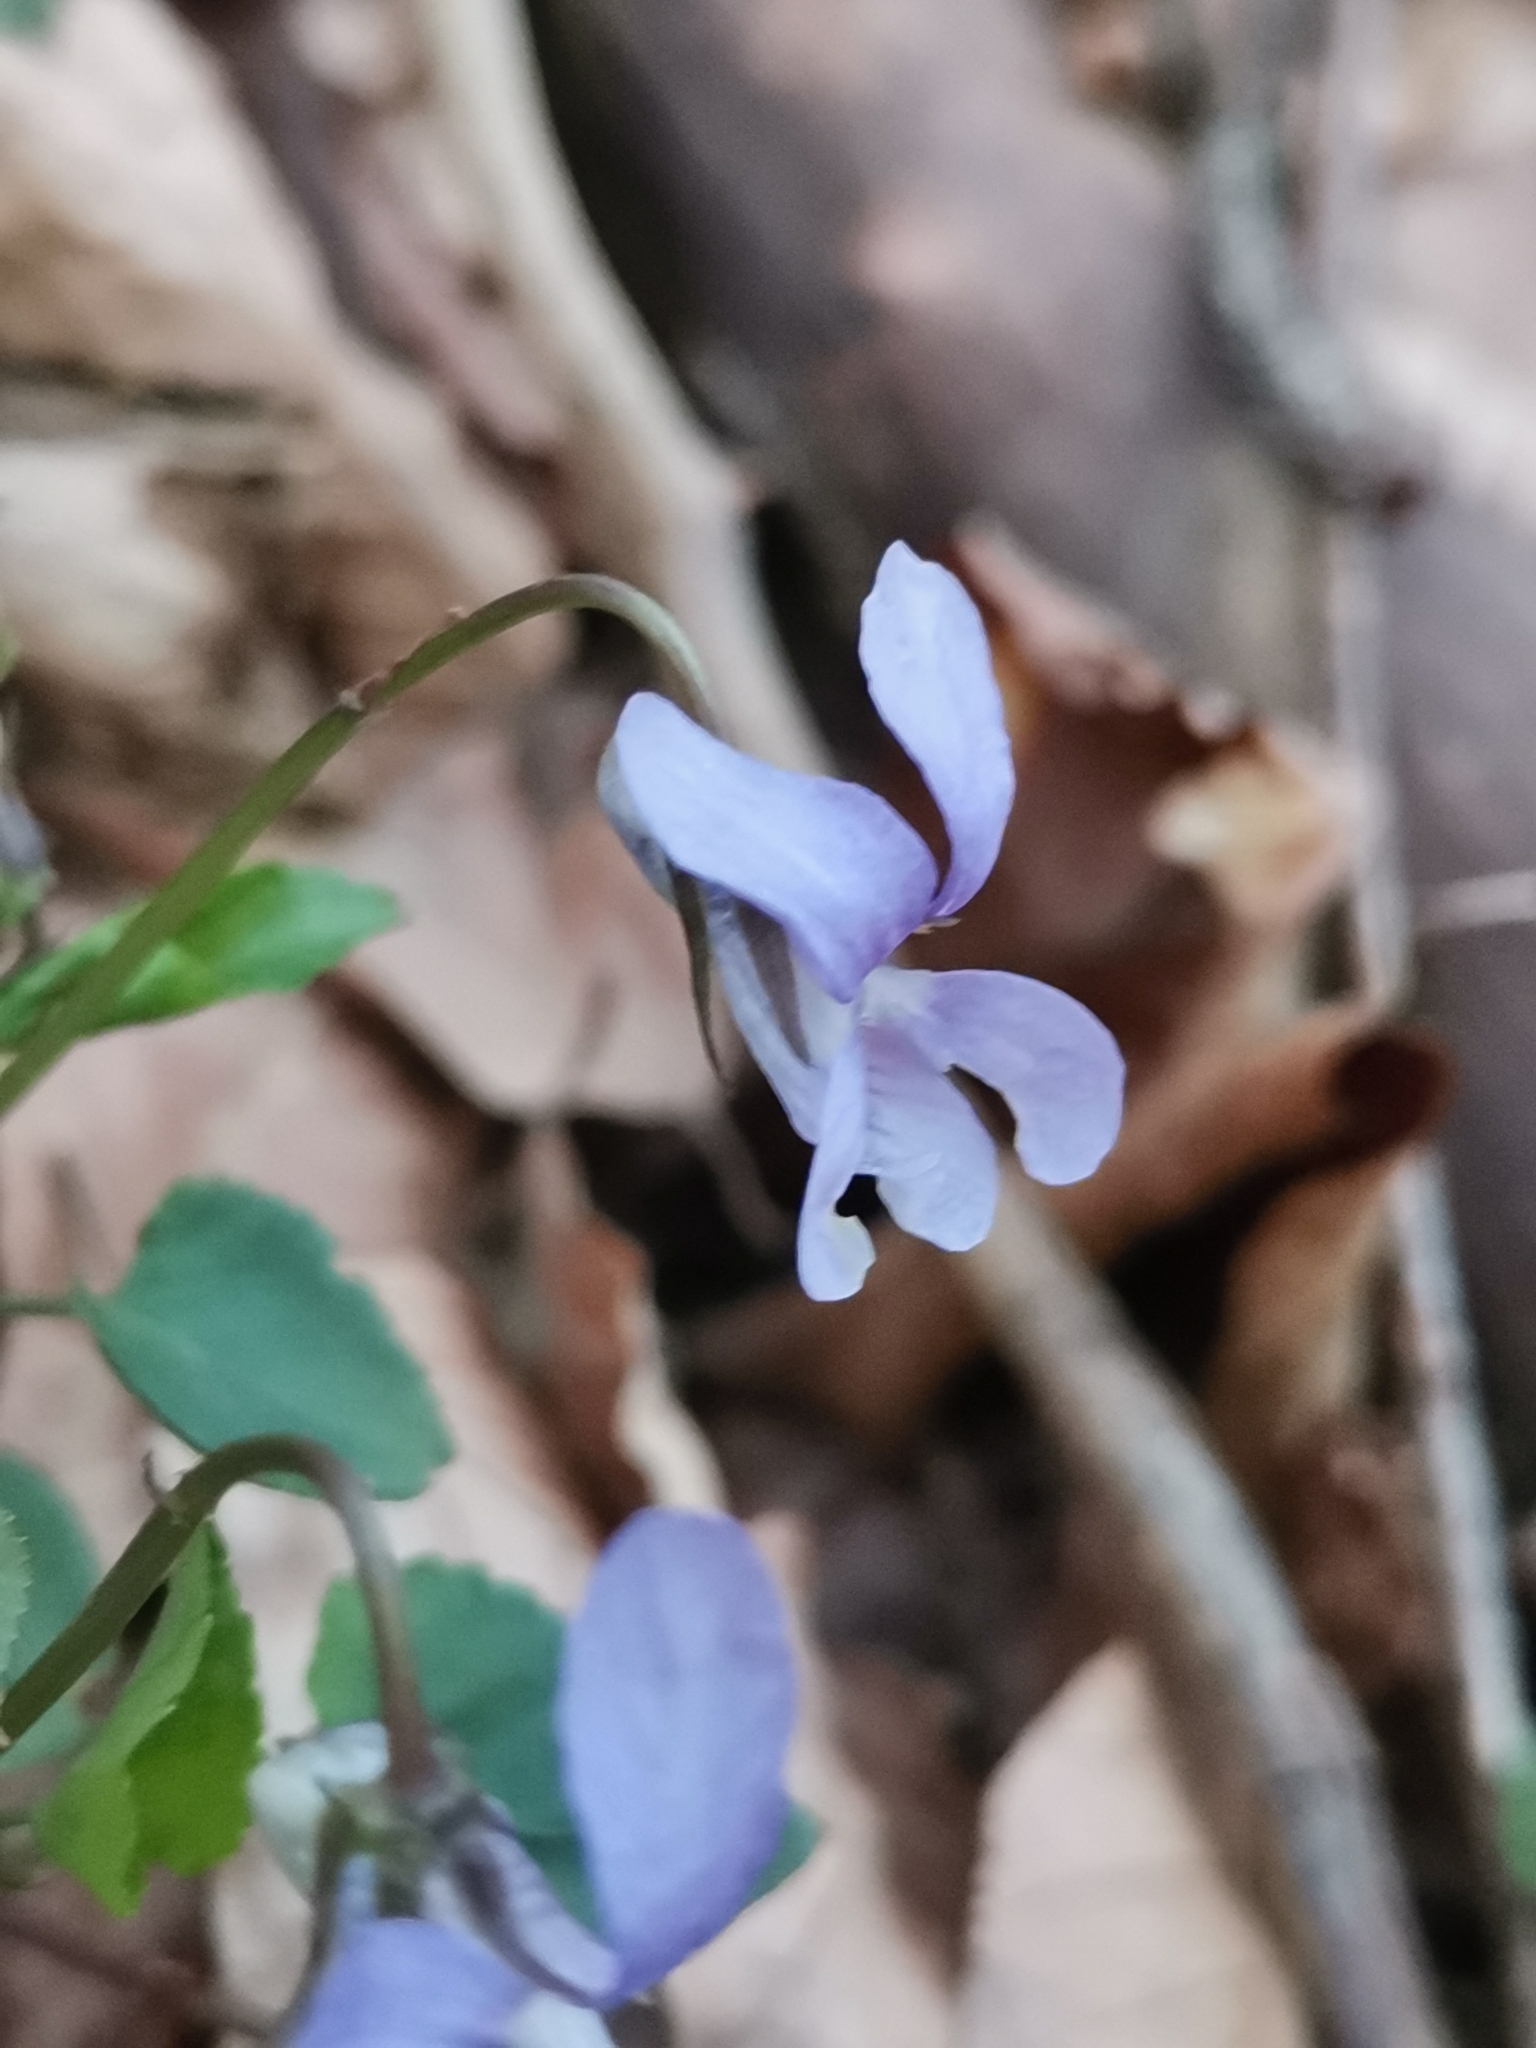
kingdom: Plantae
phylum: Tracheophyta
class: Magnoliopsida
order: Malpighiales
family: Violaceae
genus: Viola
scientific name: Viola riviniana
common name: Common dog-violet
